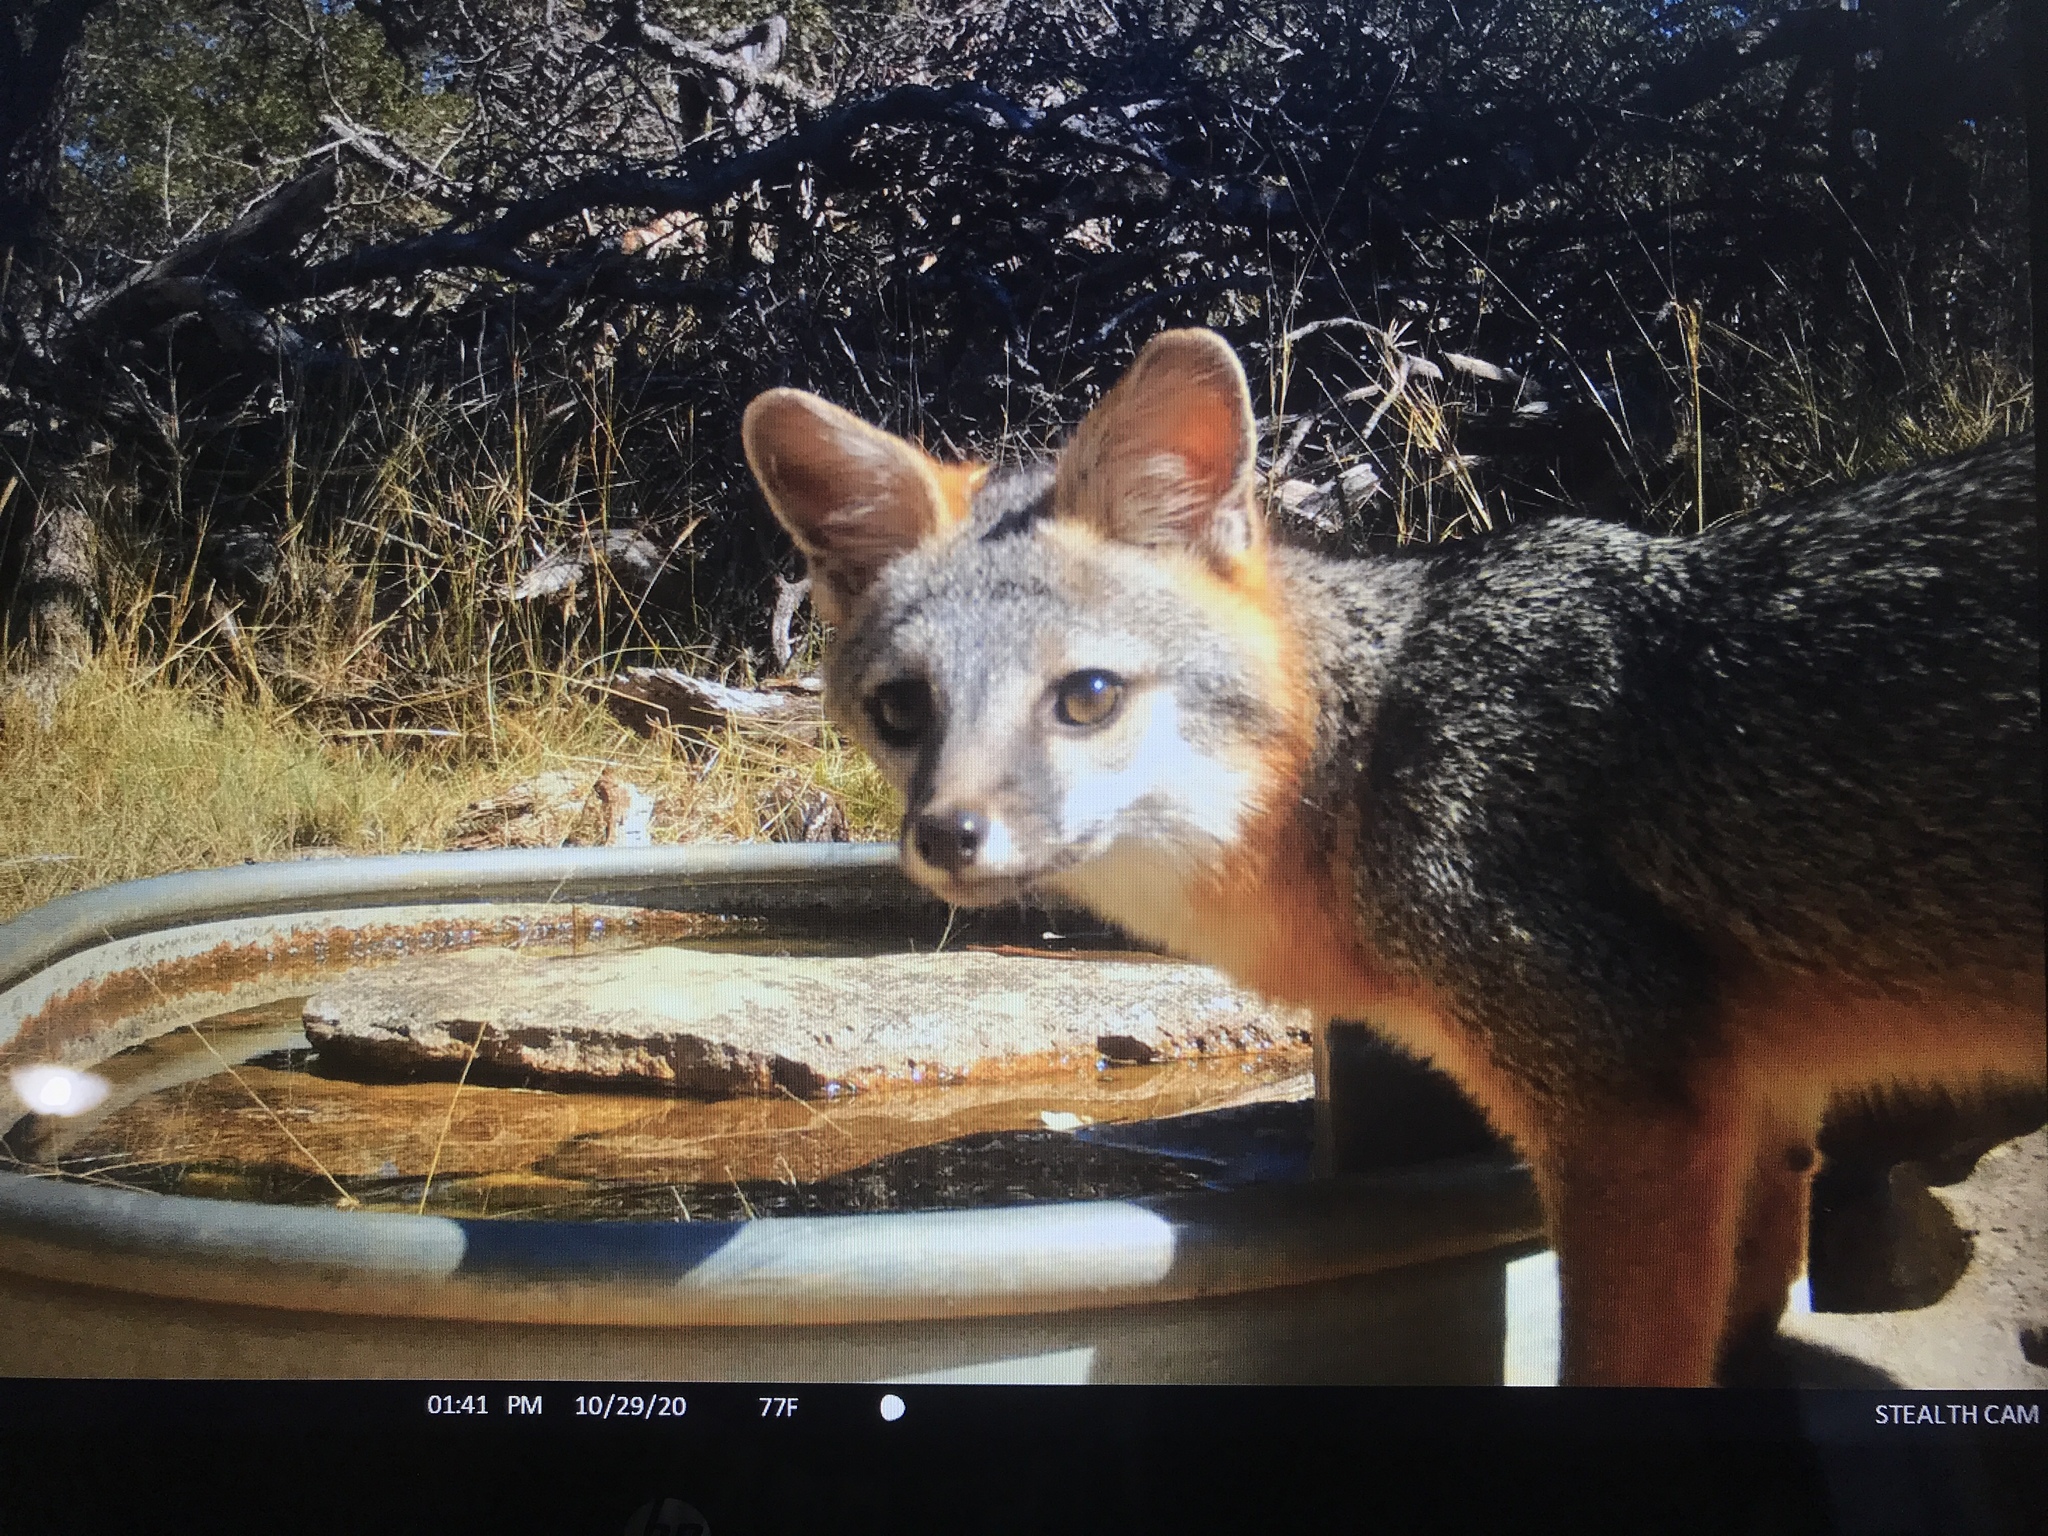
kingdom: Animalia
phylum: Chordata
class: Mammalia
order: Carnivora
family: Canidae
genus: Urocyon
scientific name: Urocyon cinereoargenteus
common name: Gray fox
